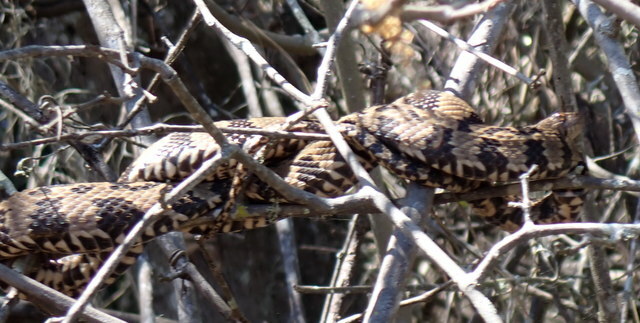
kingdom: Animalia
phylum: Chordata
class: Squamata
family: Colubridae
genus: Nerodia
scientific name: Nerodia taxispilota
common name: Brown water snake
